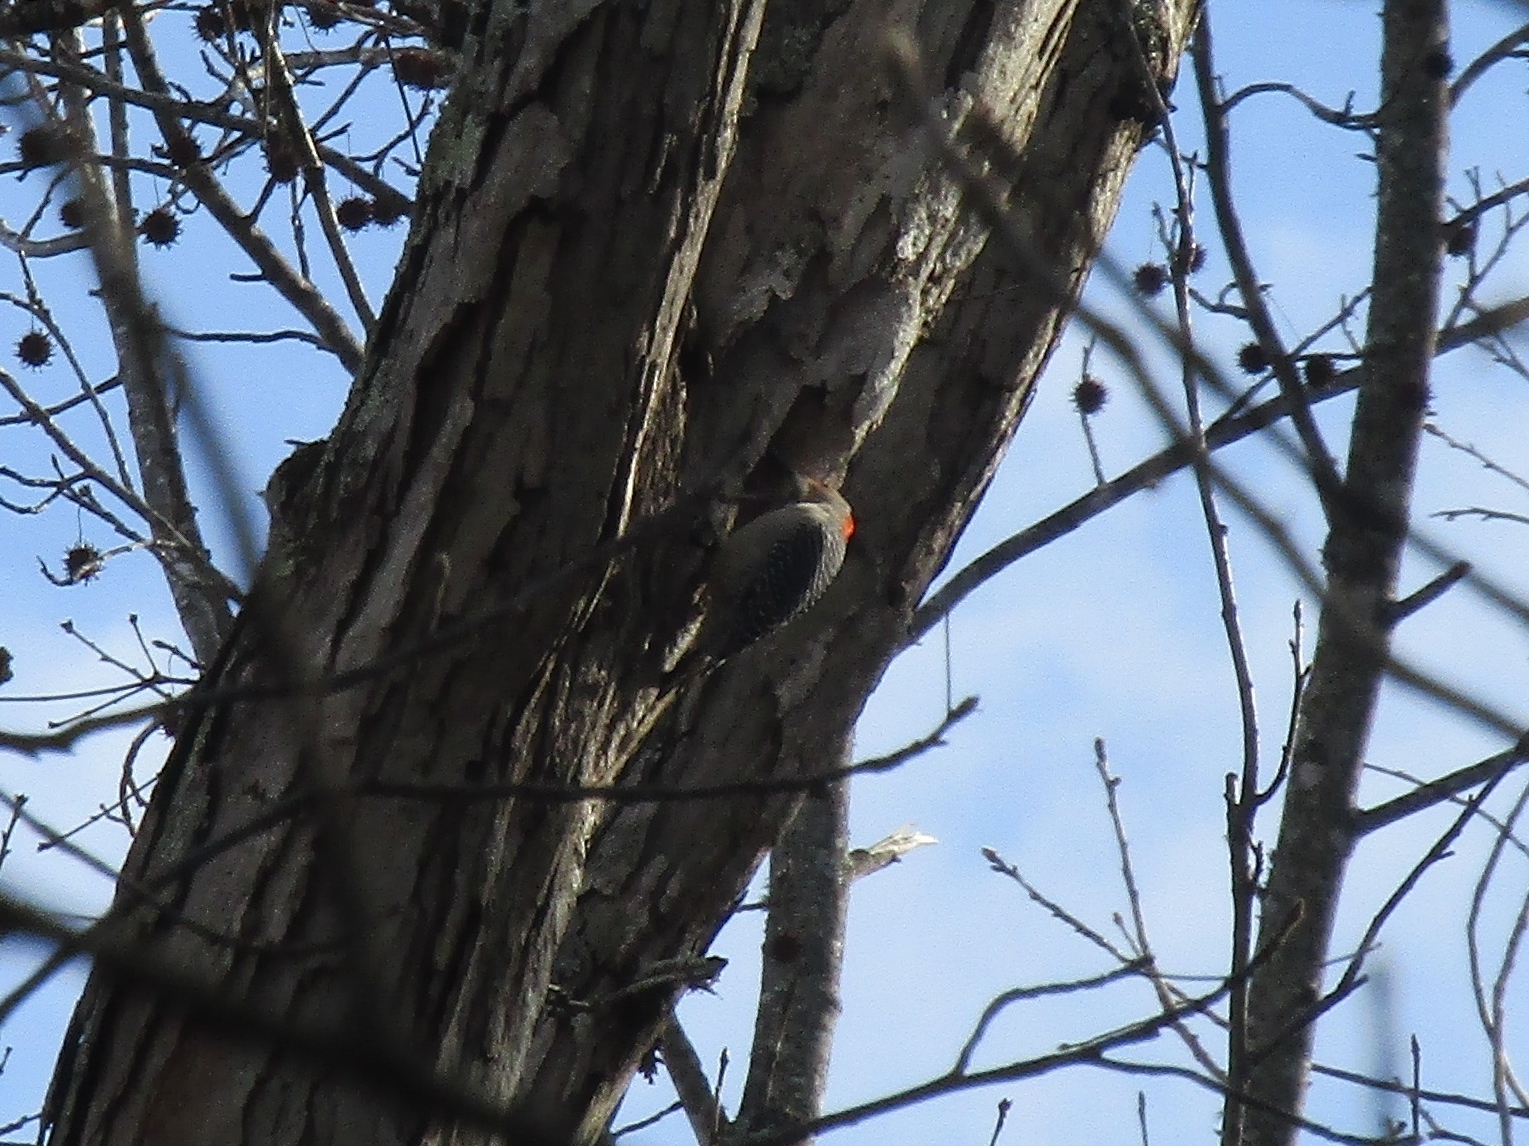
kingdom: Animalia
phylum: Chordata
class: Aves
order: Piciformes
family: Picidae
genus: Melanerpes
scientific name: Melanerpes carolinus
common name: Red-bellied woodpecker
